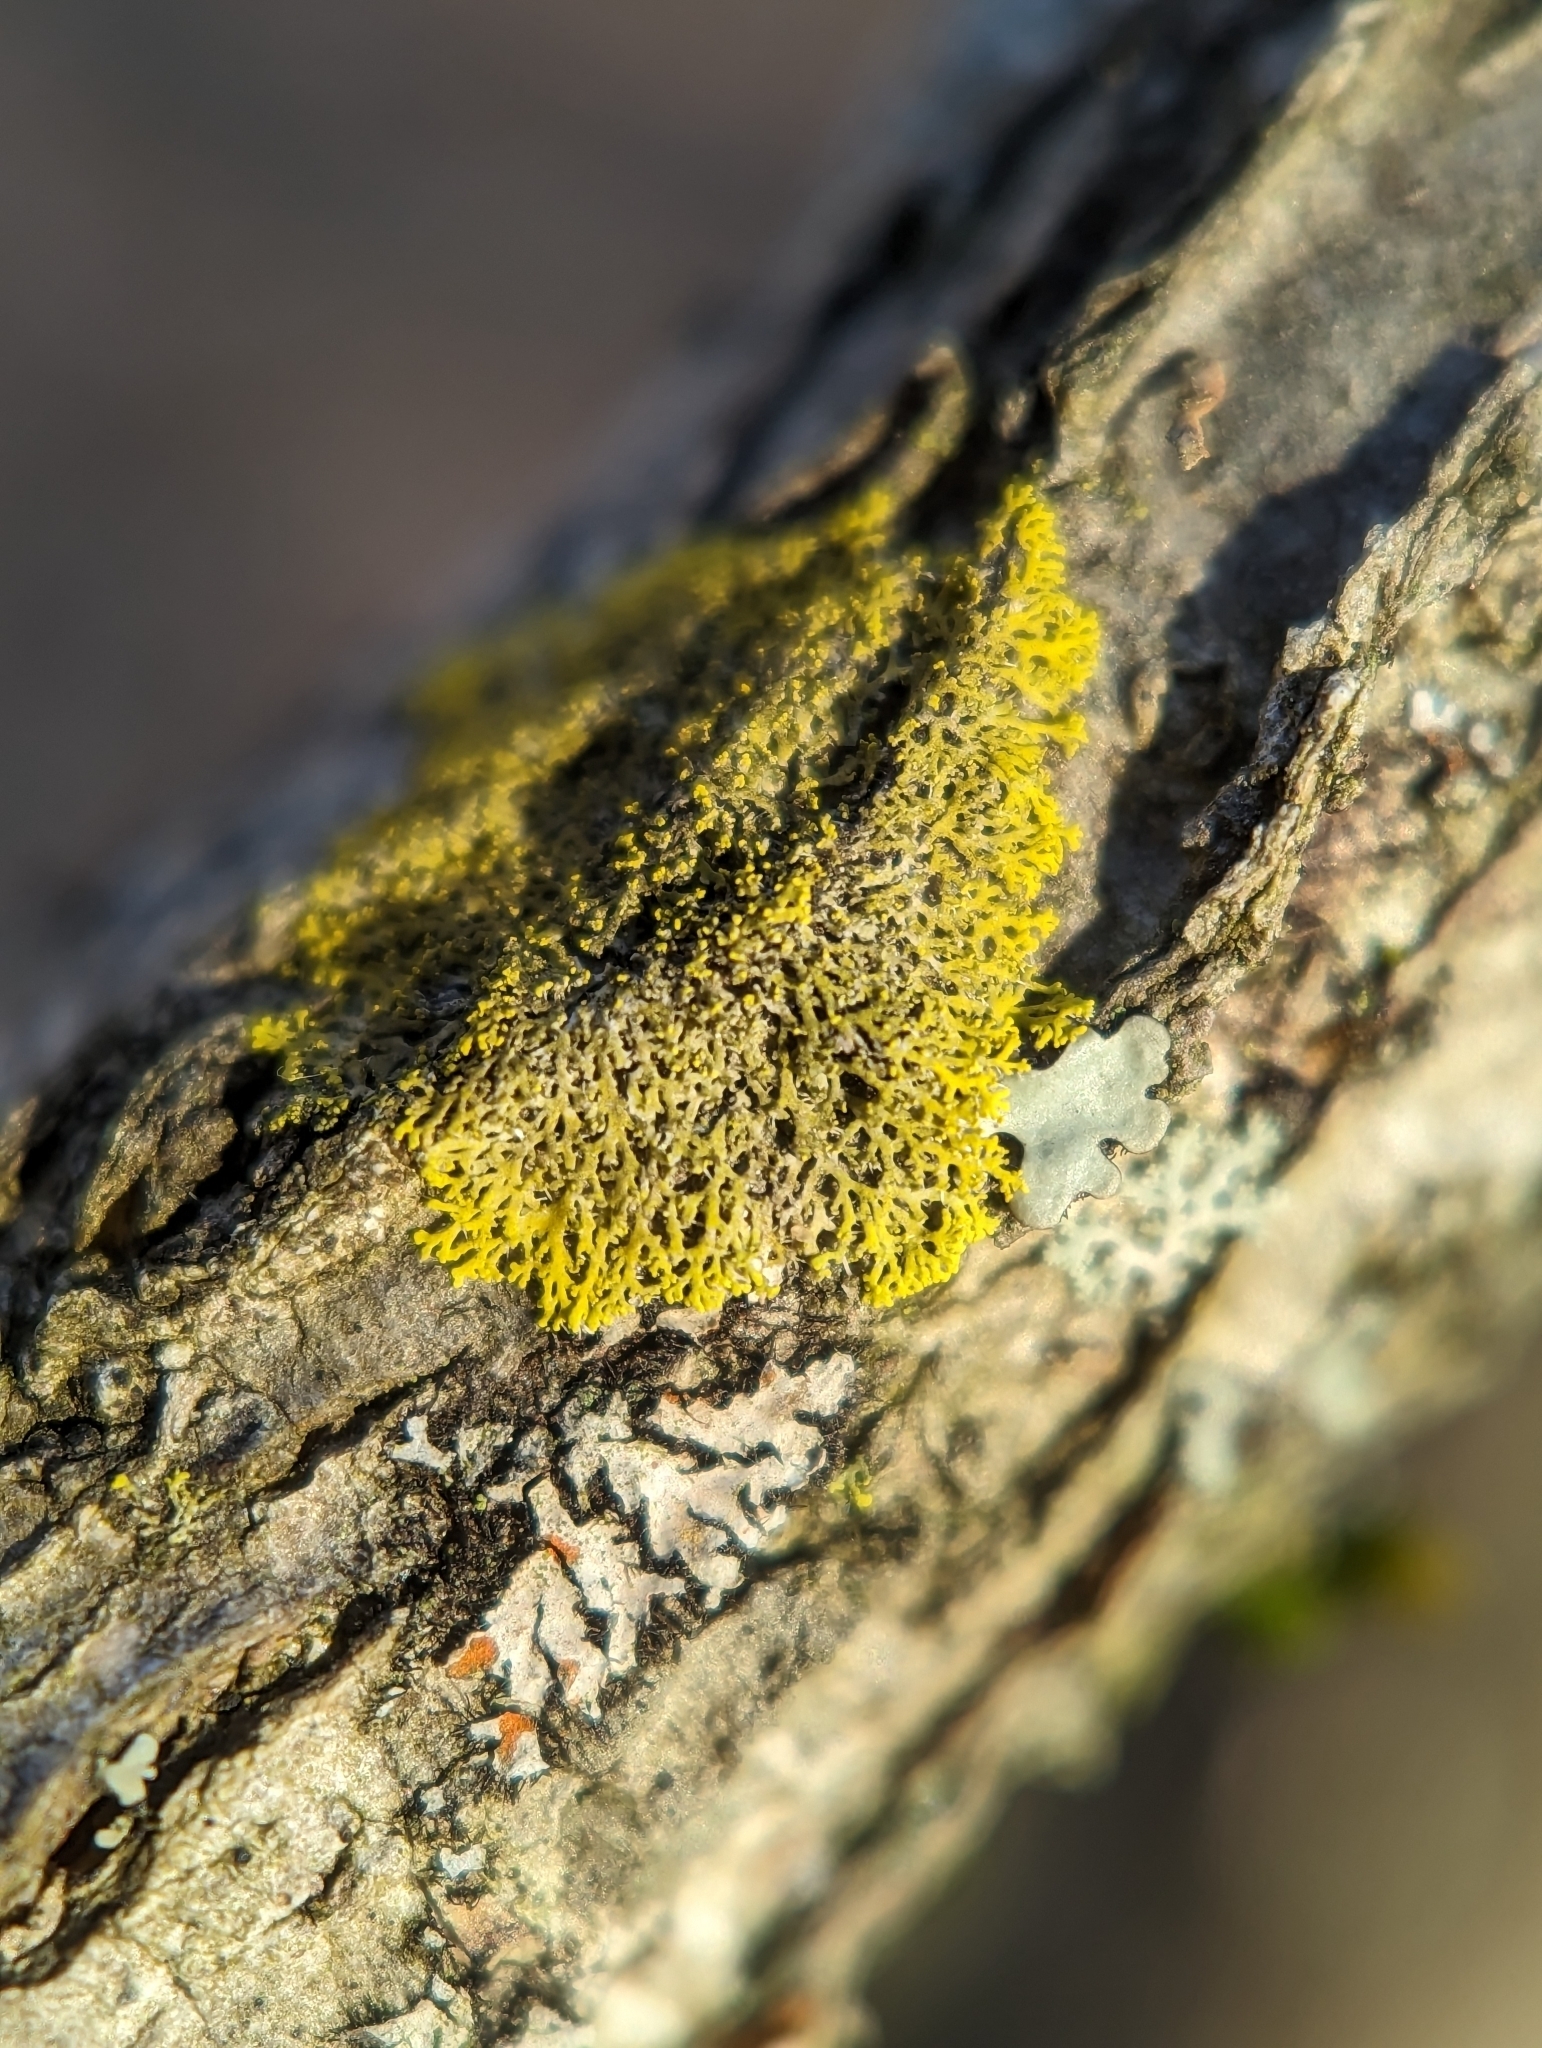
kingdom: Fungi
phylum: Ascomycota
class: Candelariomycetes
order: Candelariales
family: Candelariaceae
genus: Candelaria
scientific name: Candelaria concolor
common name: Candleflame lichen
